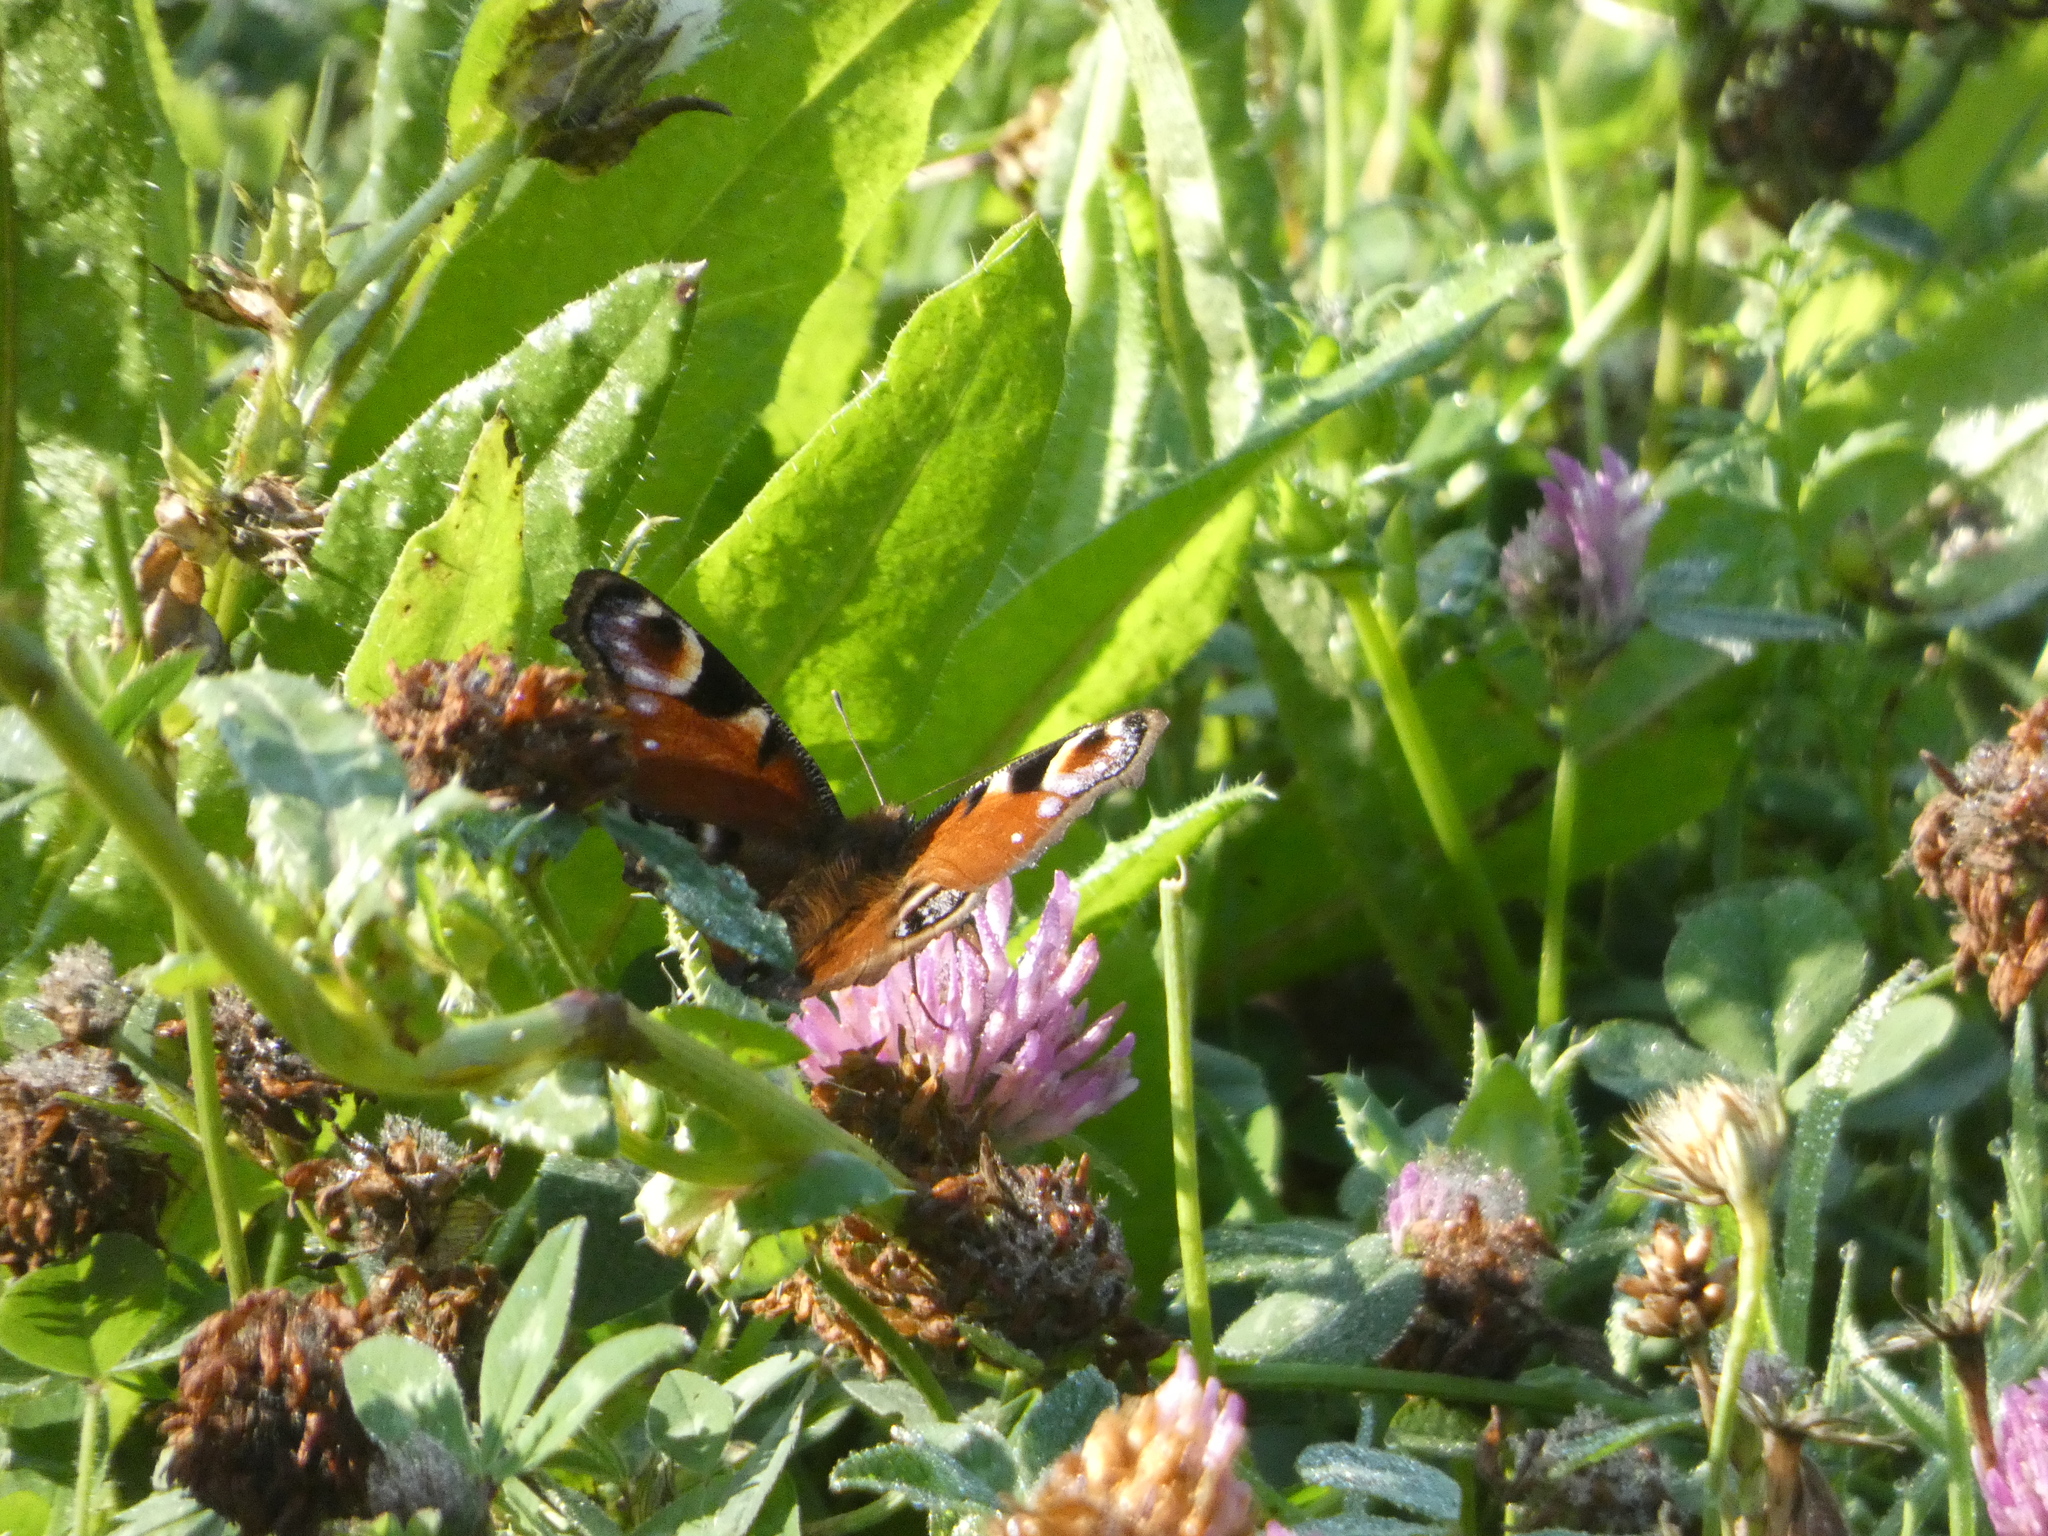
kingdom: Animalia
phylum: Arthropoda
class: Insecta
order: Lepidoptera
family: Nymphalidae
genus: Aglais
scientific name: Aglais io
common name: Peacock
